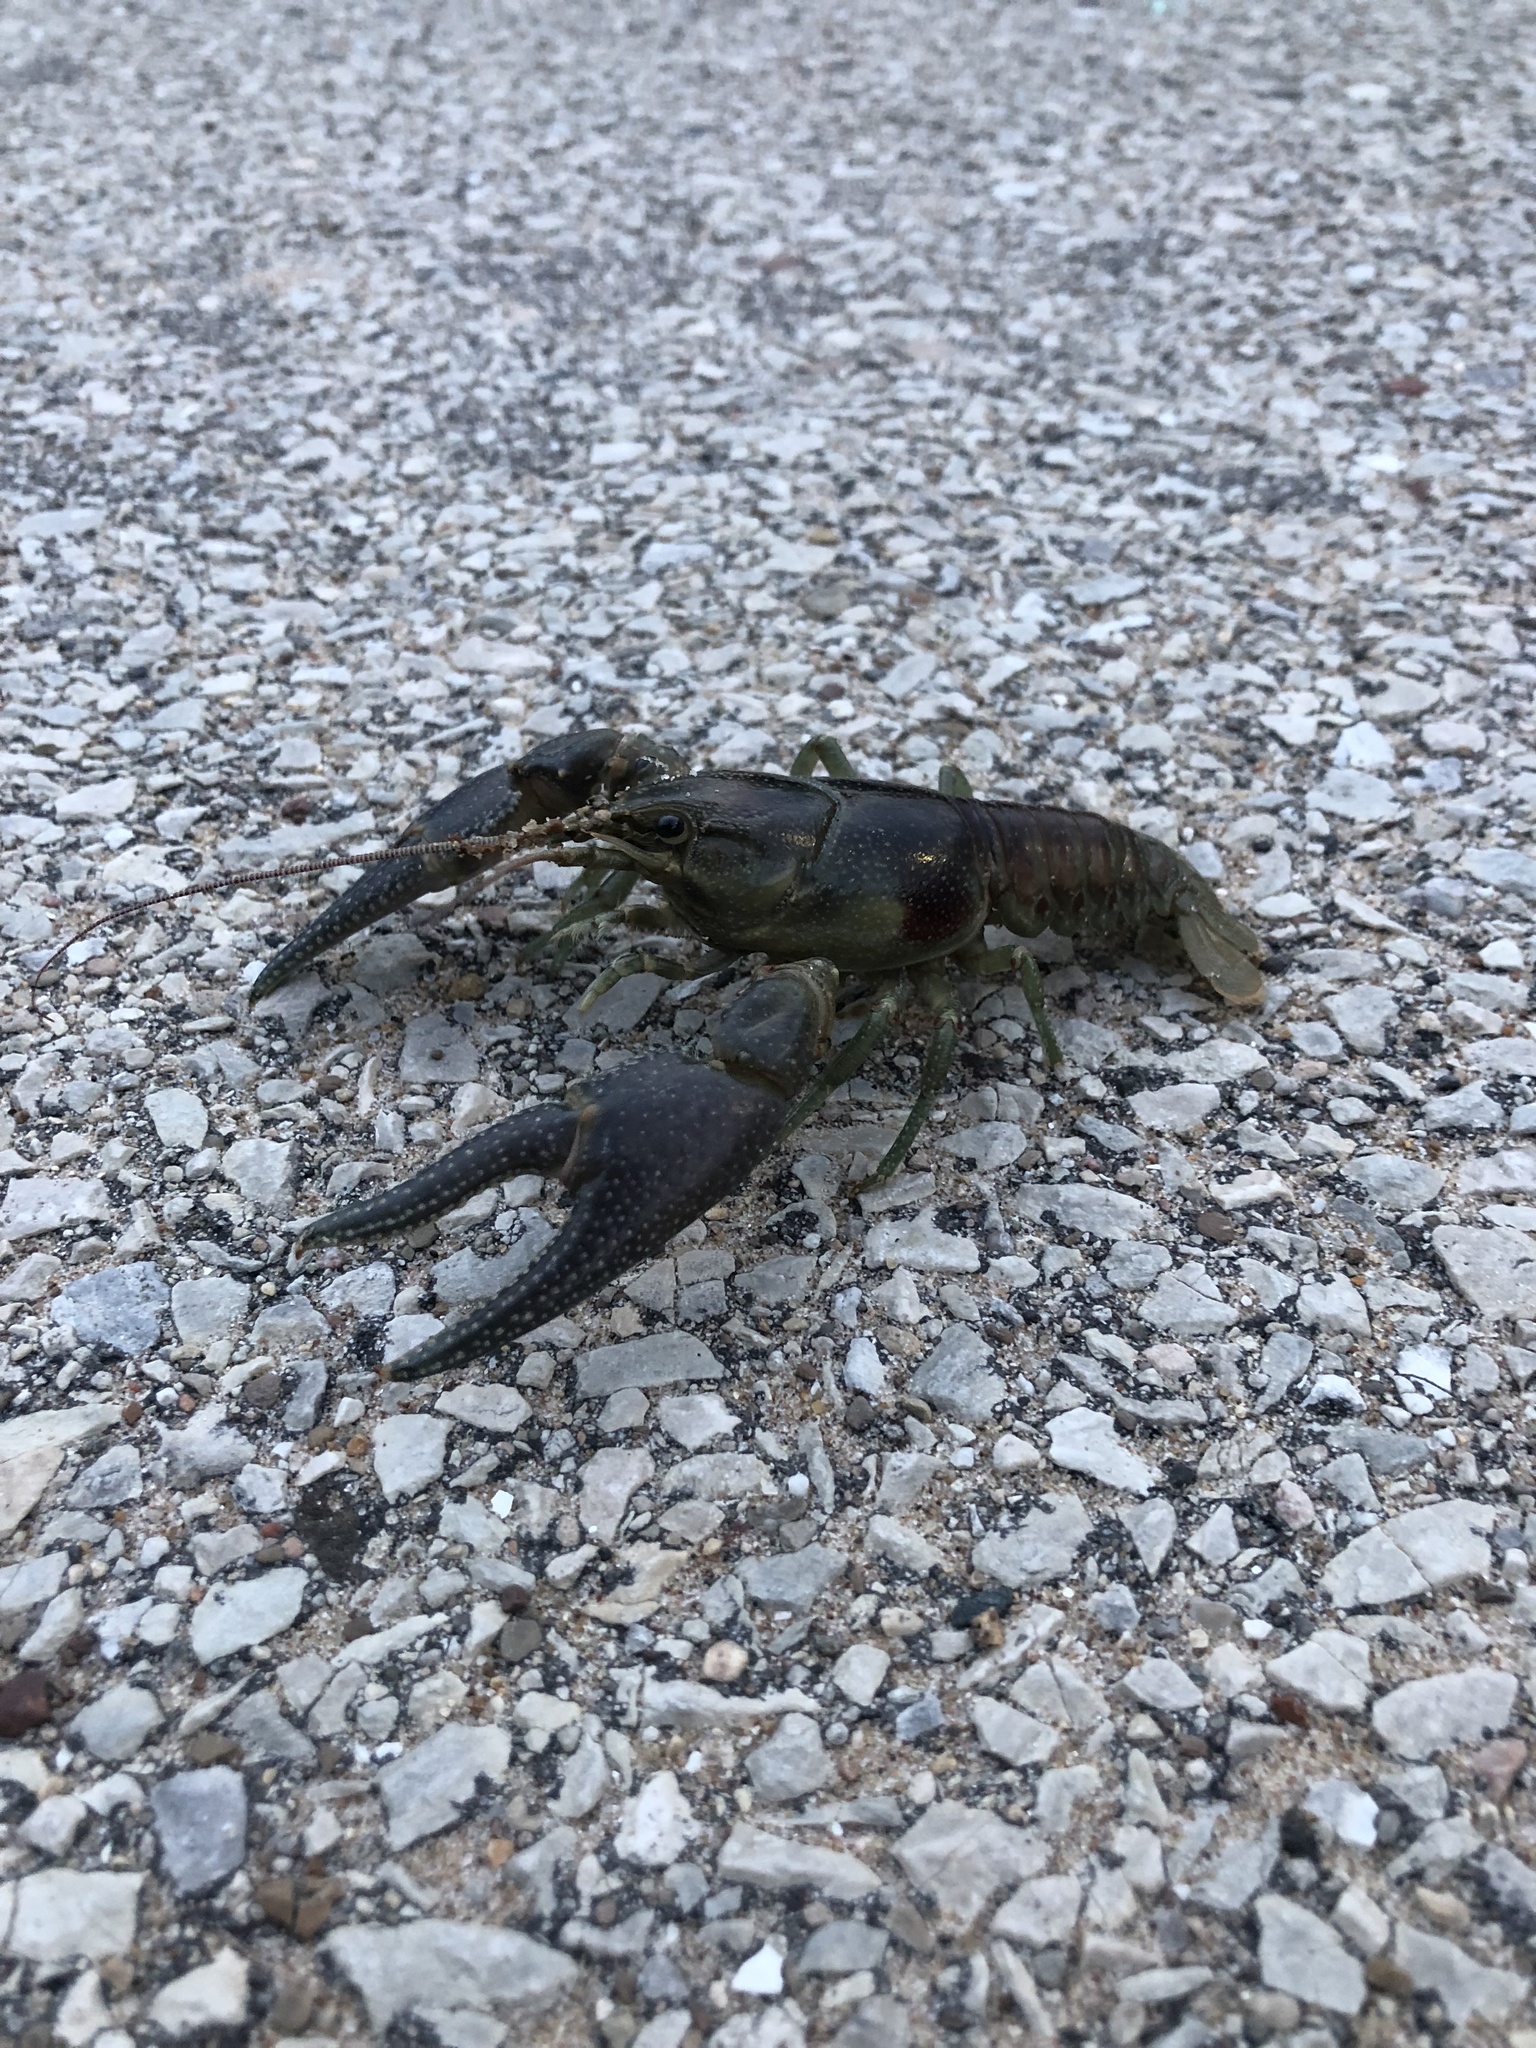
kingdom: Animalia
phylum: Arthropoda
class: Malacostraca
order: Decapoda
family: Cambaridae
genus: Faxonius
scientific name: Faxonius rusticus
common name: Rusty crayfish
